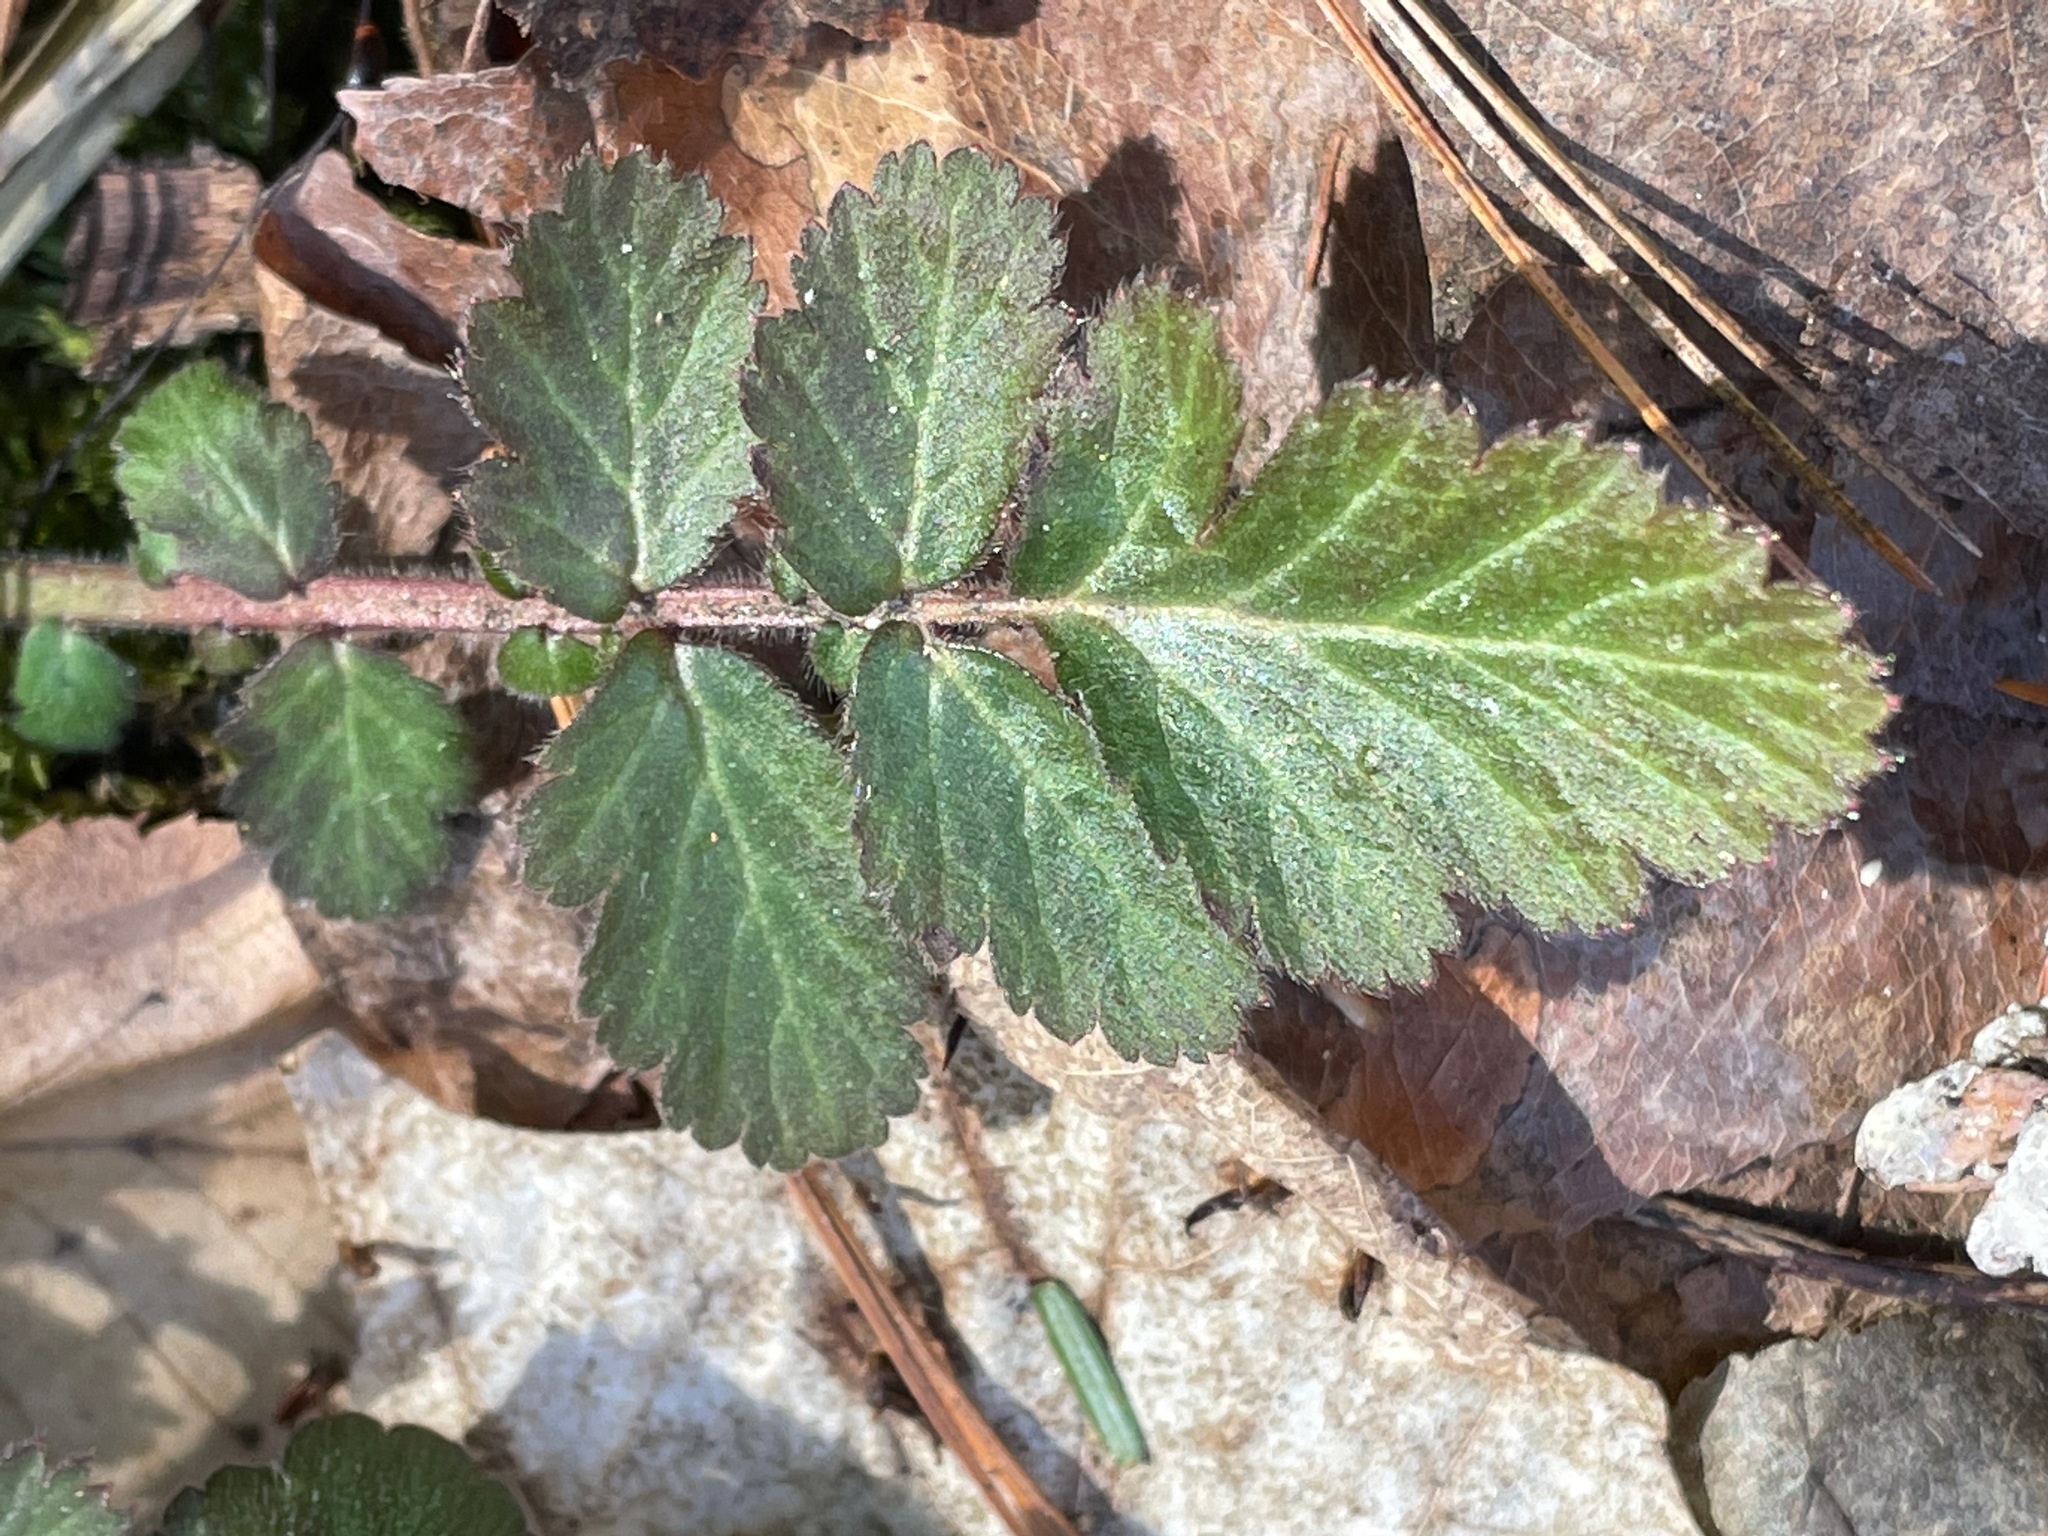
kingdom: Plantae
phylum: Tracheophyta
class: Magnoliopsida
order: Rosales
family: Rosaceae
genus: Geum
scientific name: Geum canadense
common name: White avens
